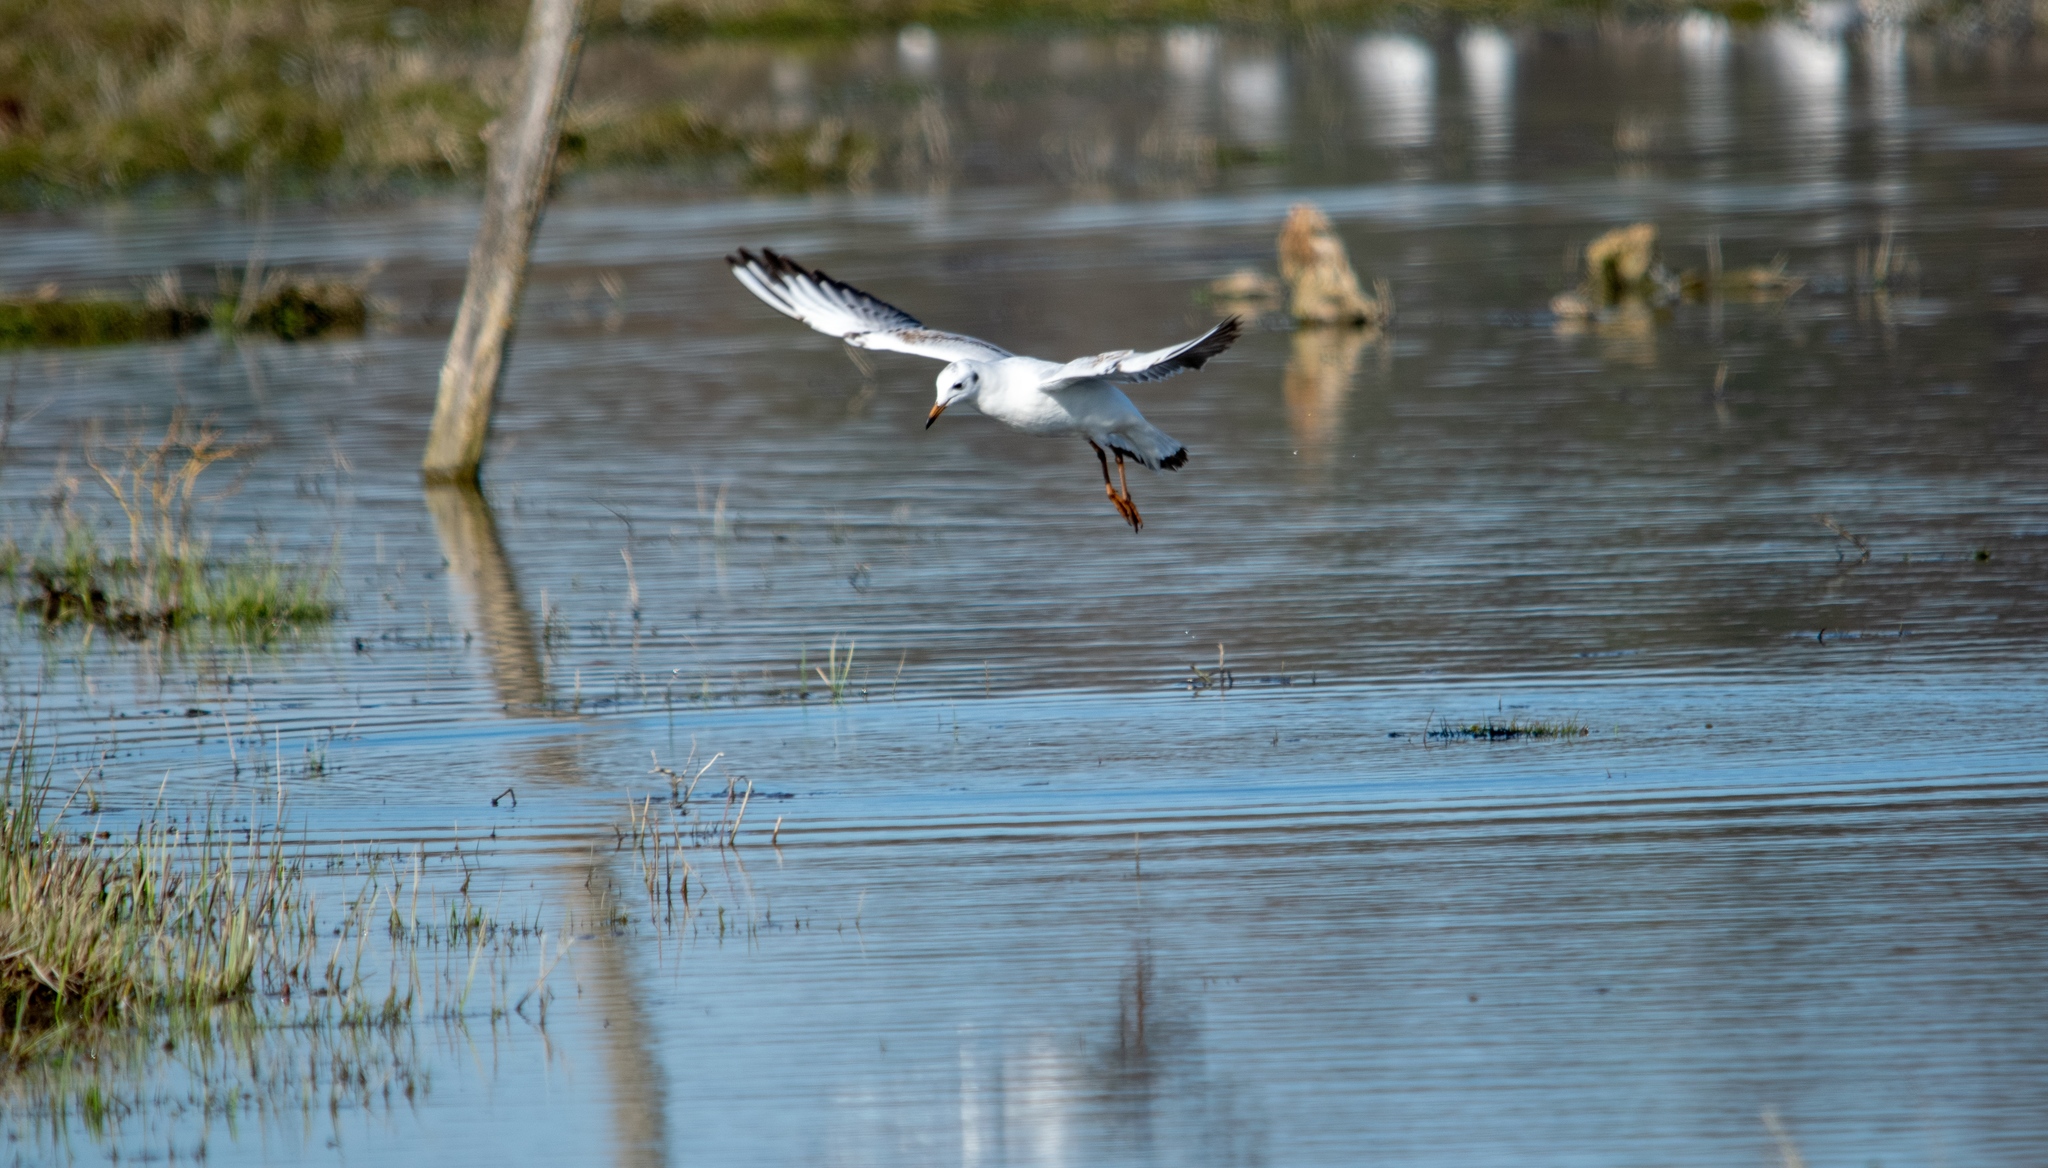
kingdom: Animalia
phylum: Chordata
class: Aves
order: Charadriiformes
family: Laridae
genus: Chroicocephalus
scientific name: Chroicocephalus ridibundus
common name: Black-headed gull
